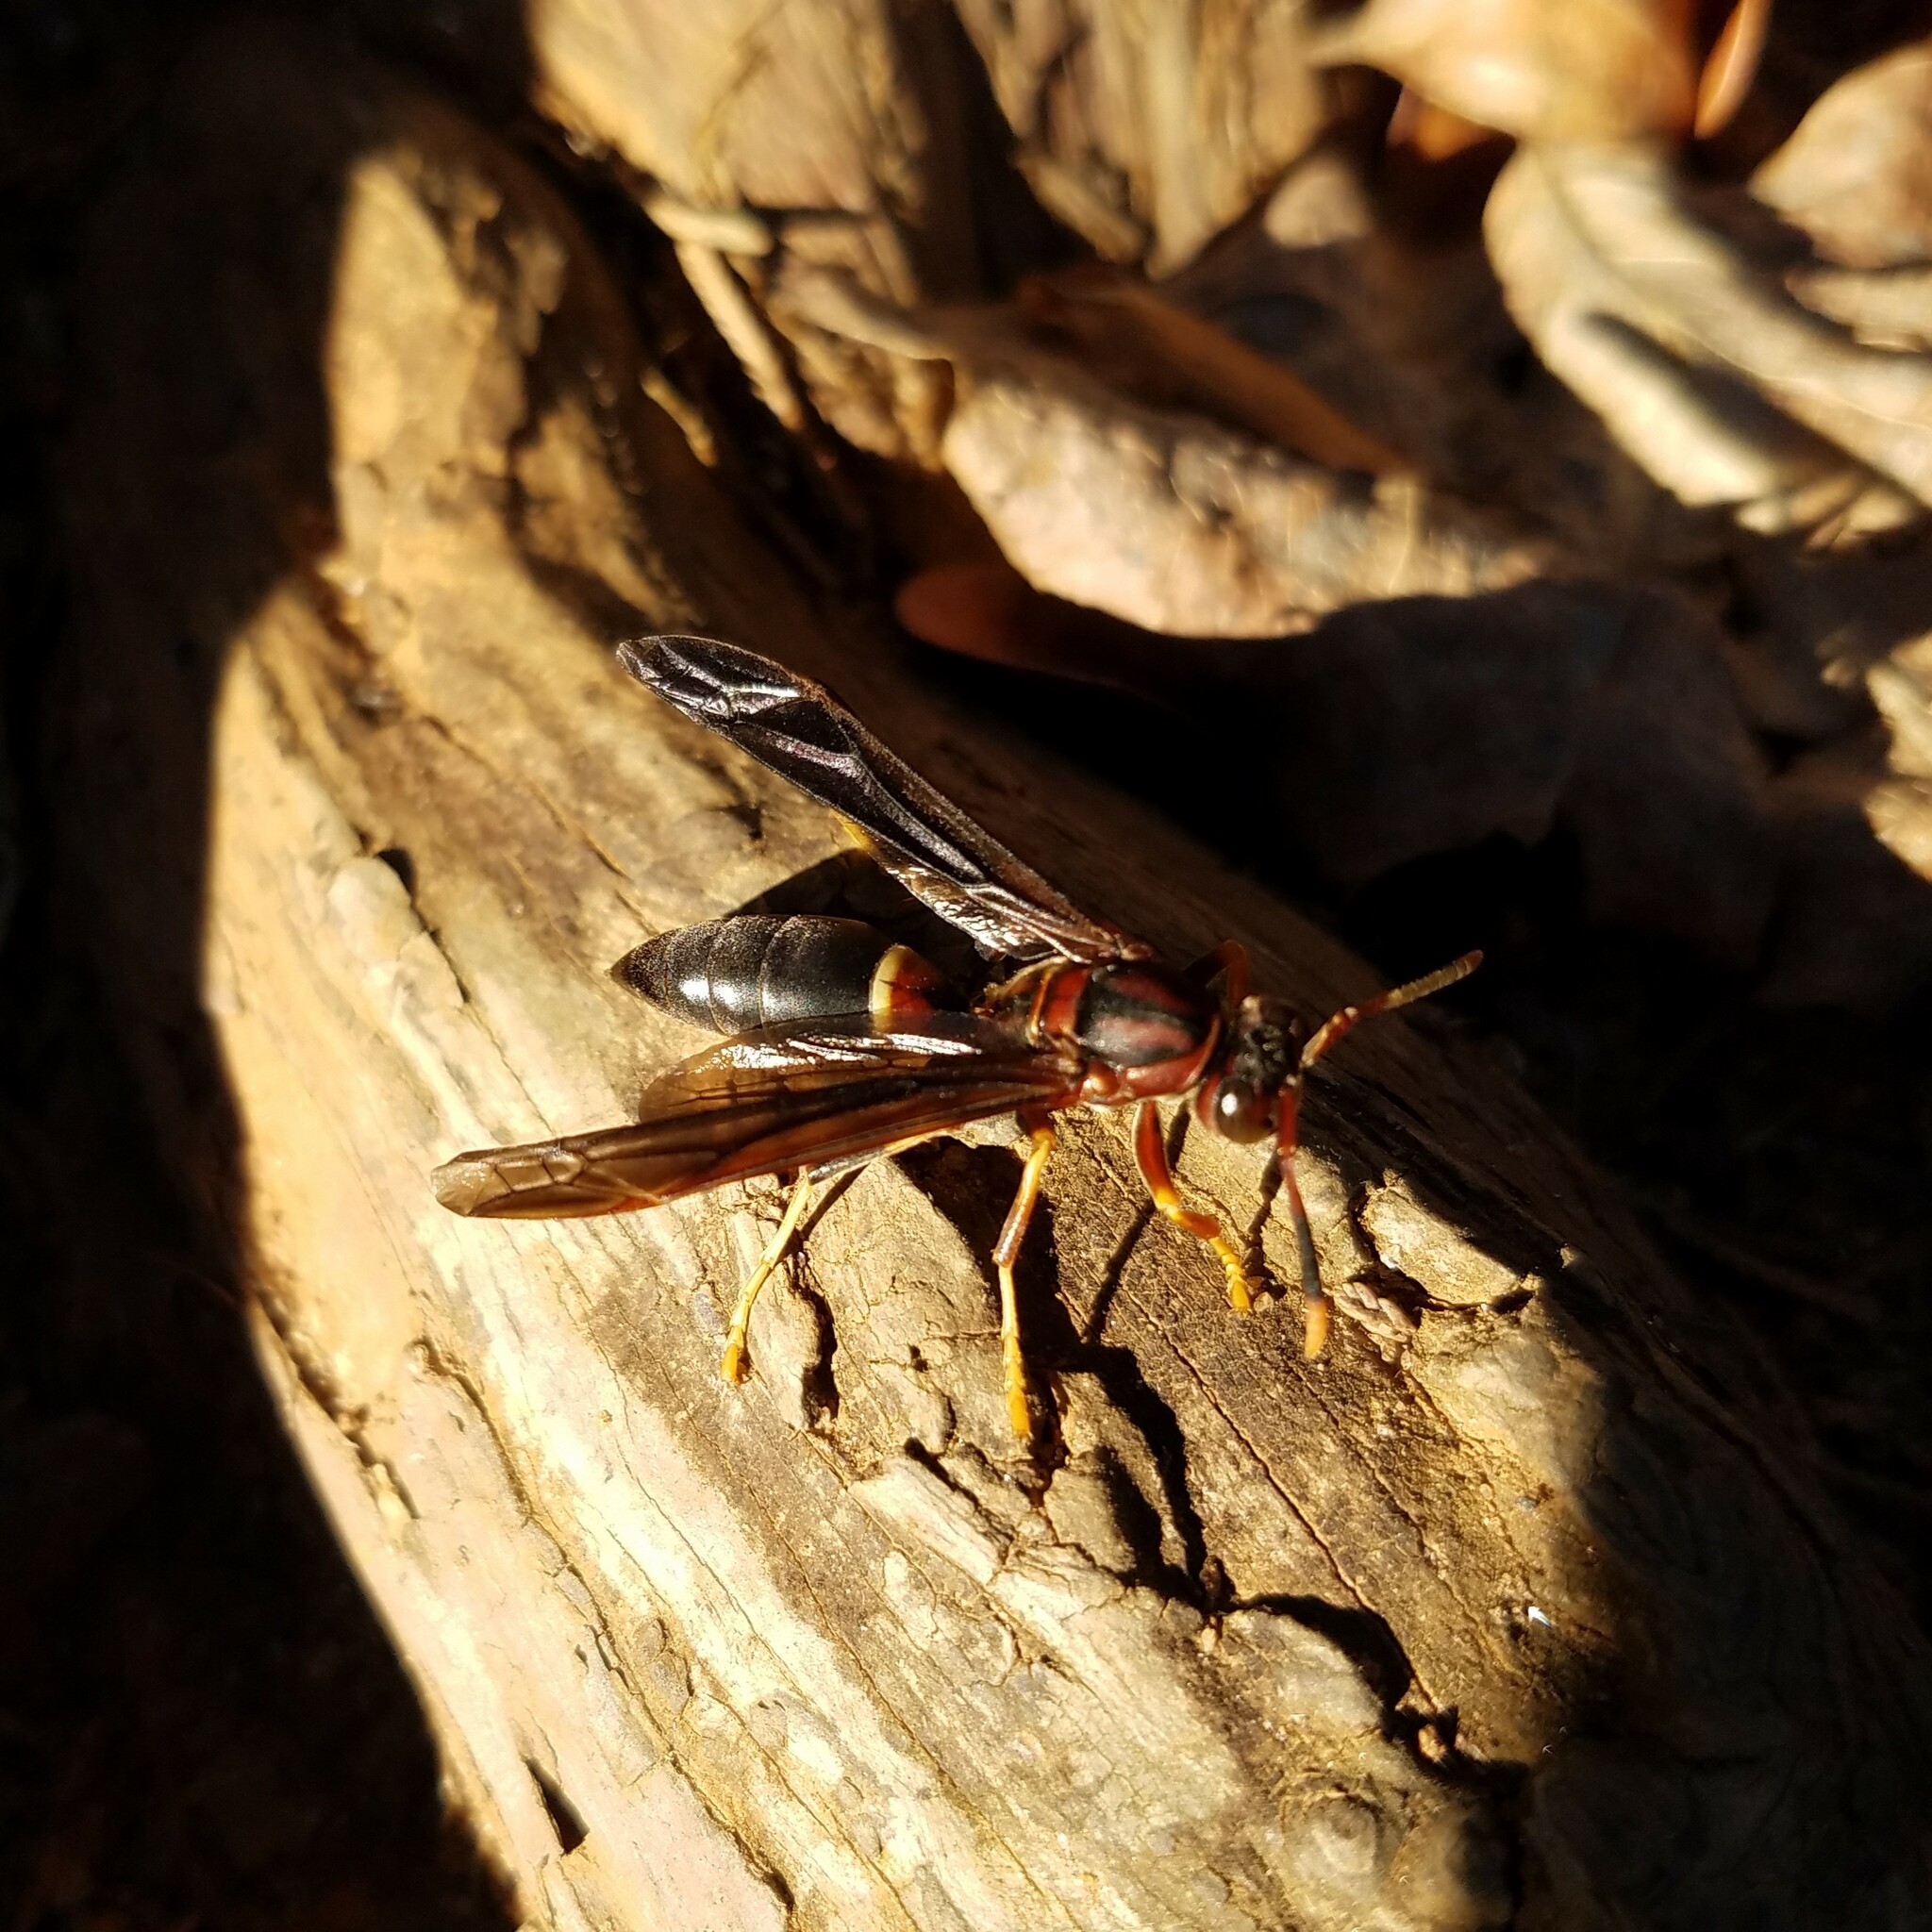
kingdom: Animalia
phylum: Arthropoda
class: Insecta
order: Hymenoptera
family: Eumenidae
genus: Polistes
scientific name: Polistes annularis
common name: Ringed paper wasp
